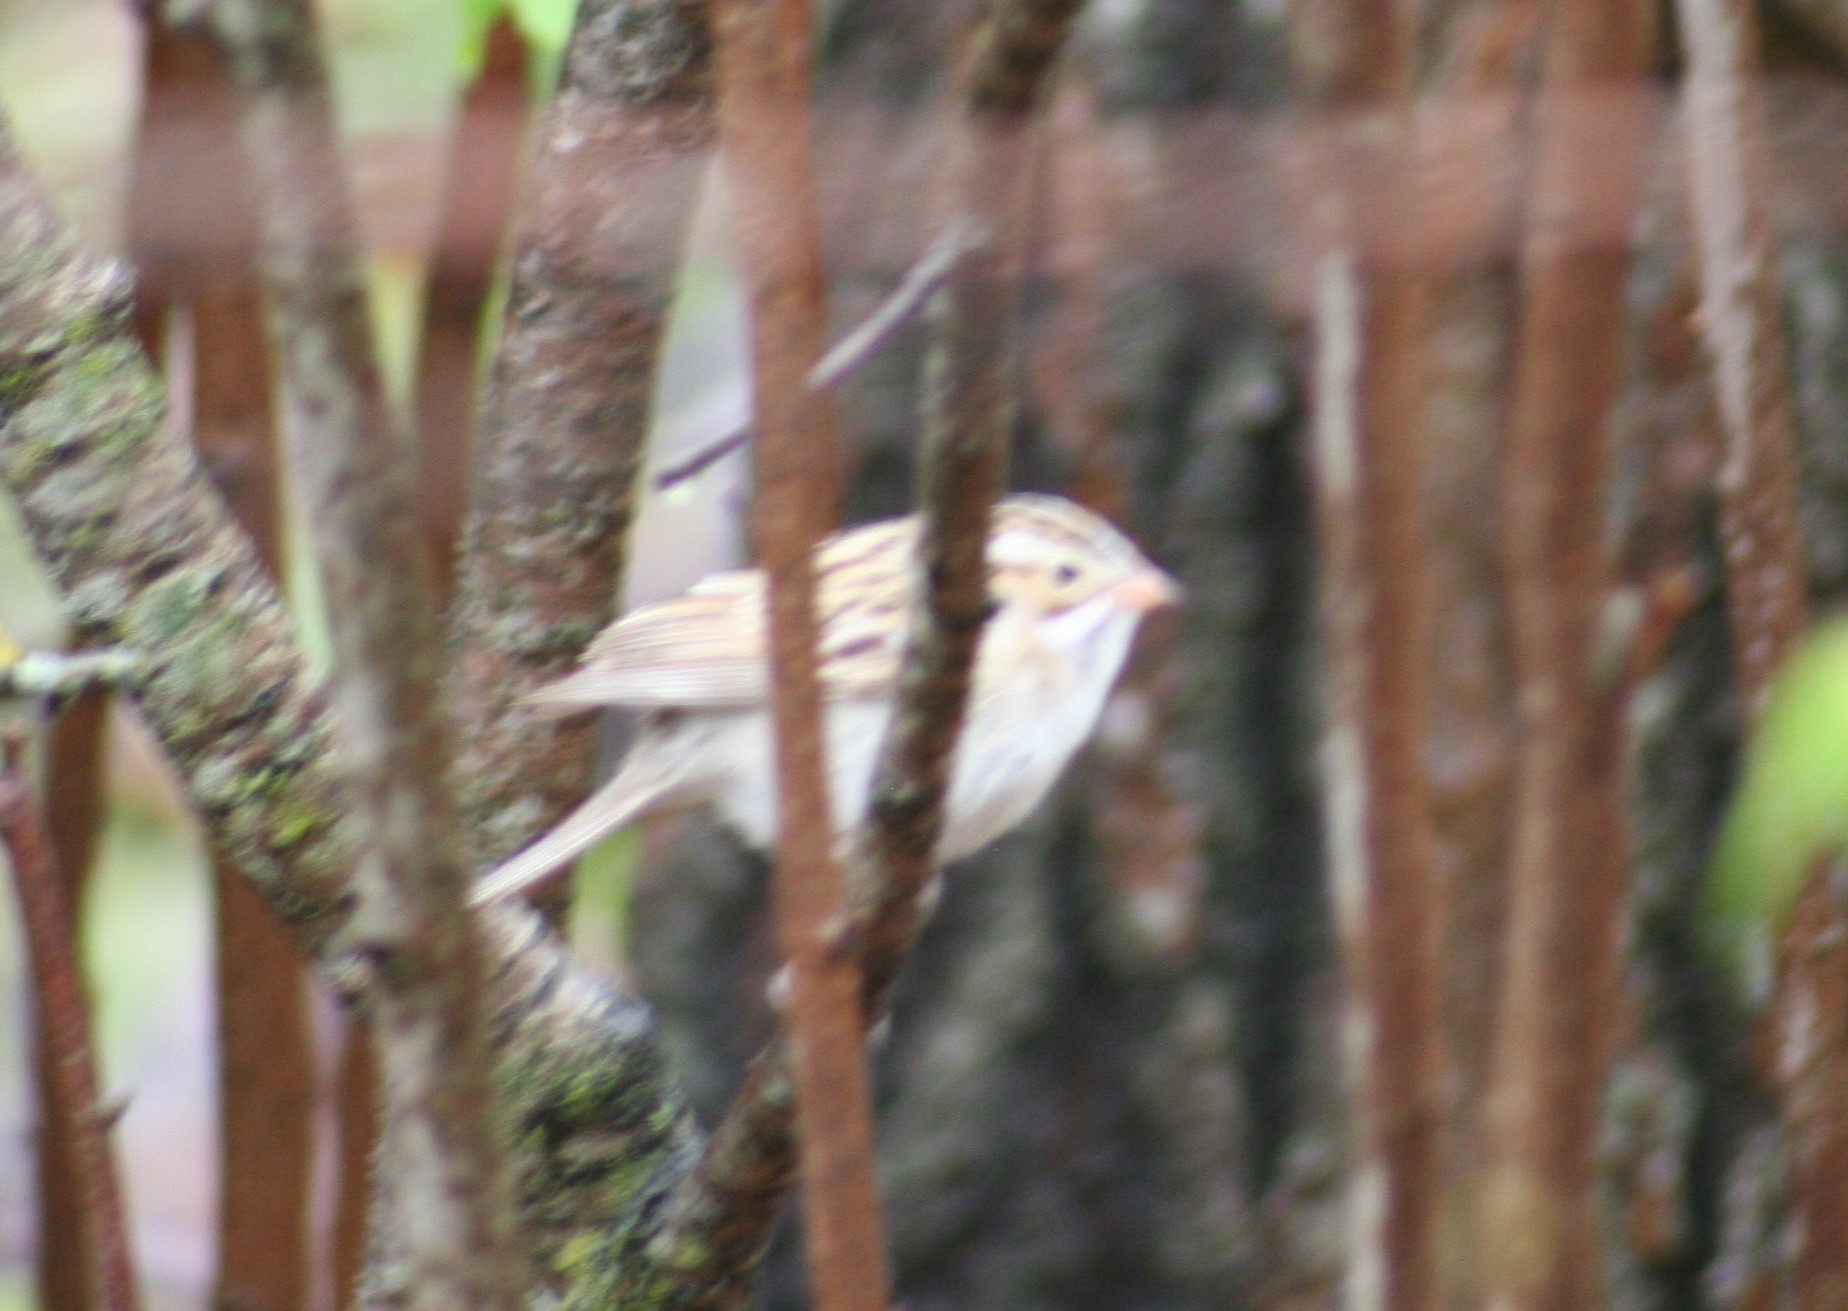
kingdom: Animalia
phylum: Chordata
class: Aves
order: Passeriformes
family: Passerellidae
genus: Spizella
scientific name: Spizella pallida
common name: Clay-colored sparrow
